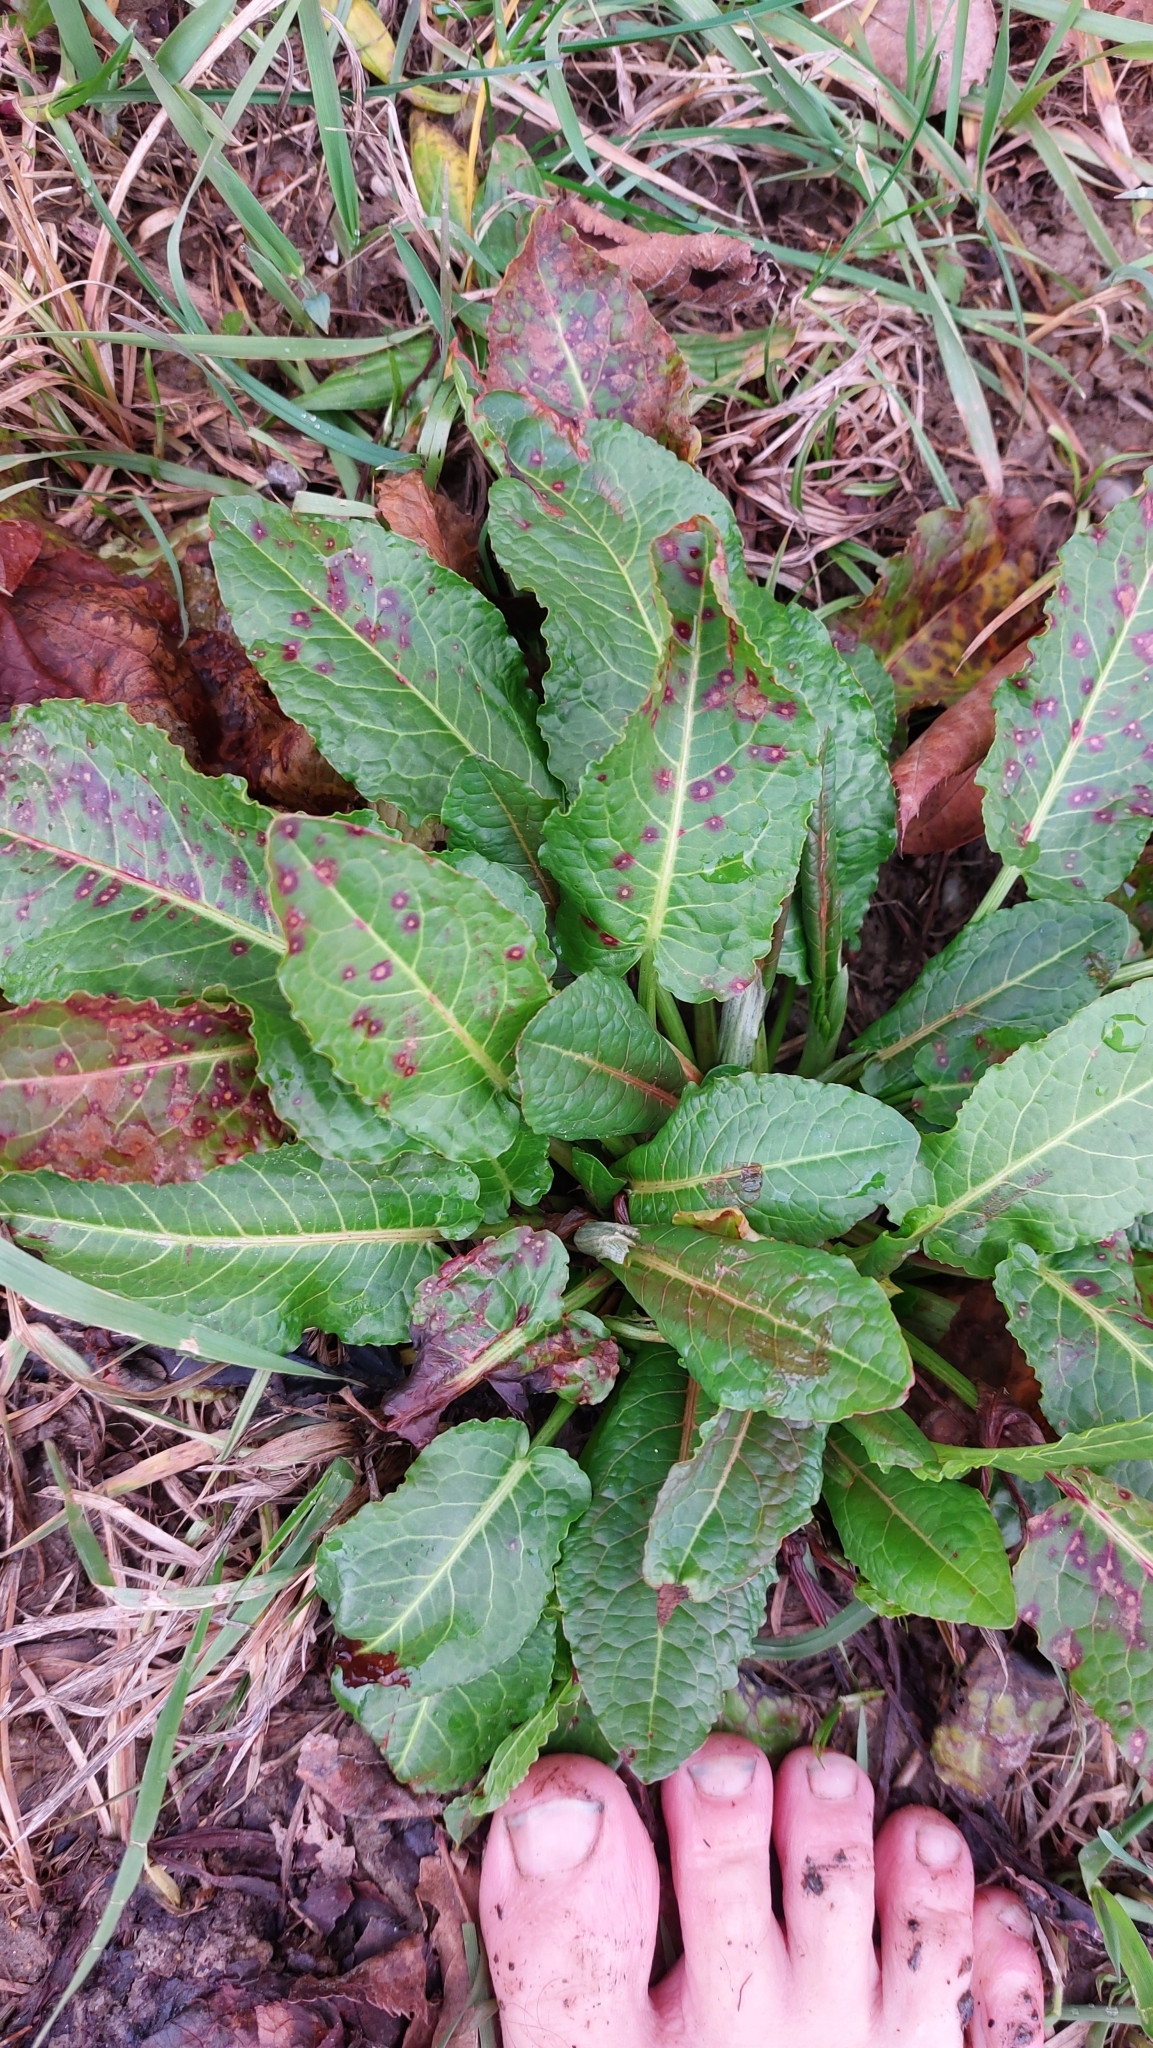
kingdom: Plantae
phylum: Tracheophyta
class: Magnoliopsida
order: Caryophyllales
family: Polygonaceae
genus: Rumex
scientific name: Rumex obtusifolius
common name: Bitter dock
